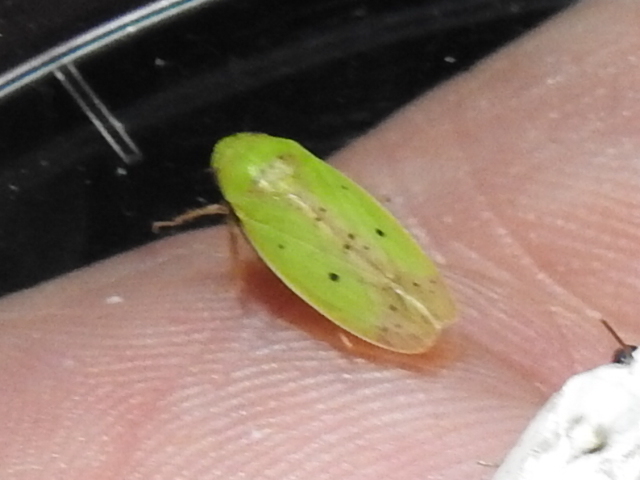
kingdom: Animalia
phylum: Arthropoda
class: Insecta
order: Hemiptera
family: Cicadellidae
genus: Ponana
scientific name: Ponana
